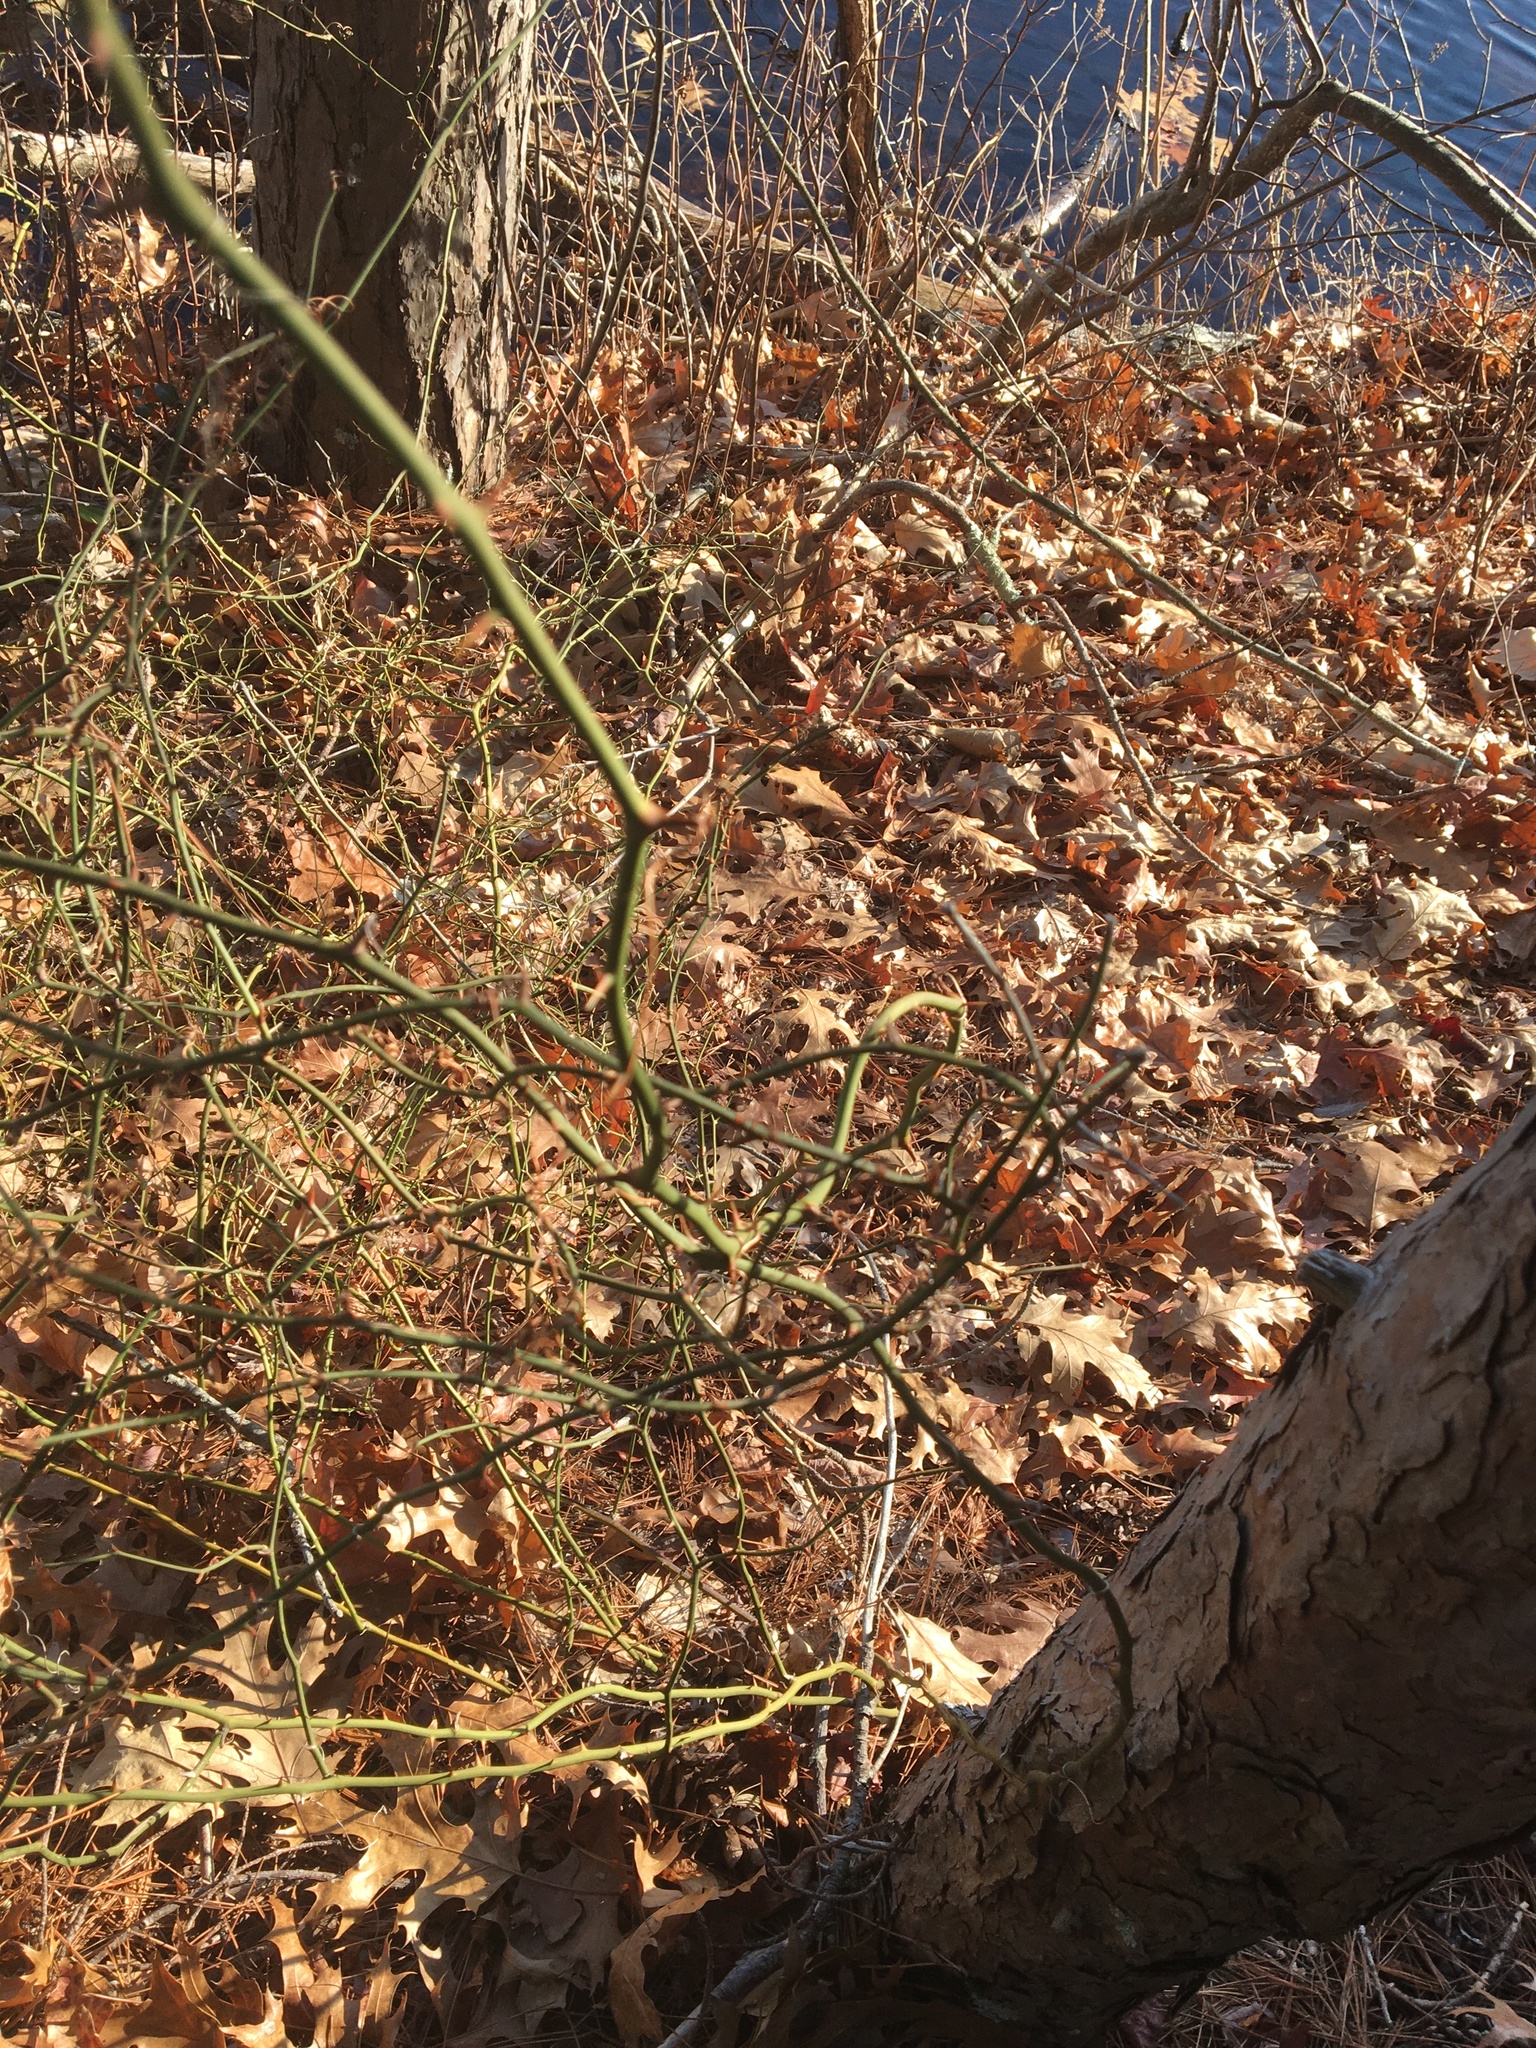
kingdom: Plantae
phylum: Tracheophyta
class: Liliopsida
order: Liliales
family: Smilacaceae
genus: Smilax
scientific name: Smilax rotundifolia
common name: Bullbriar
